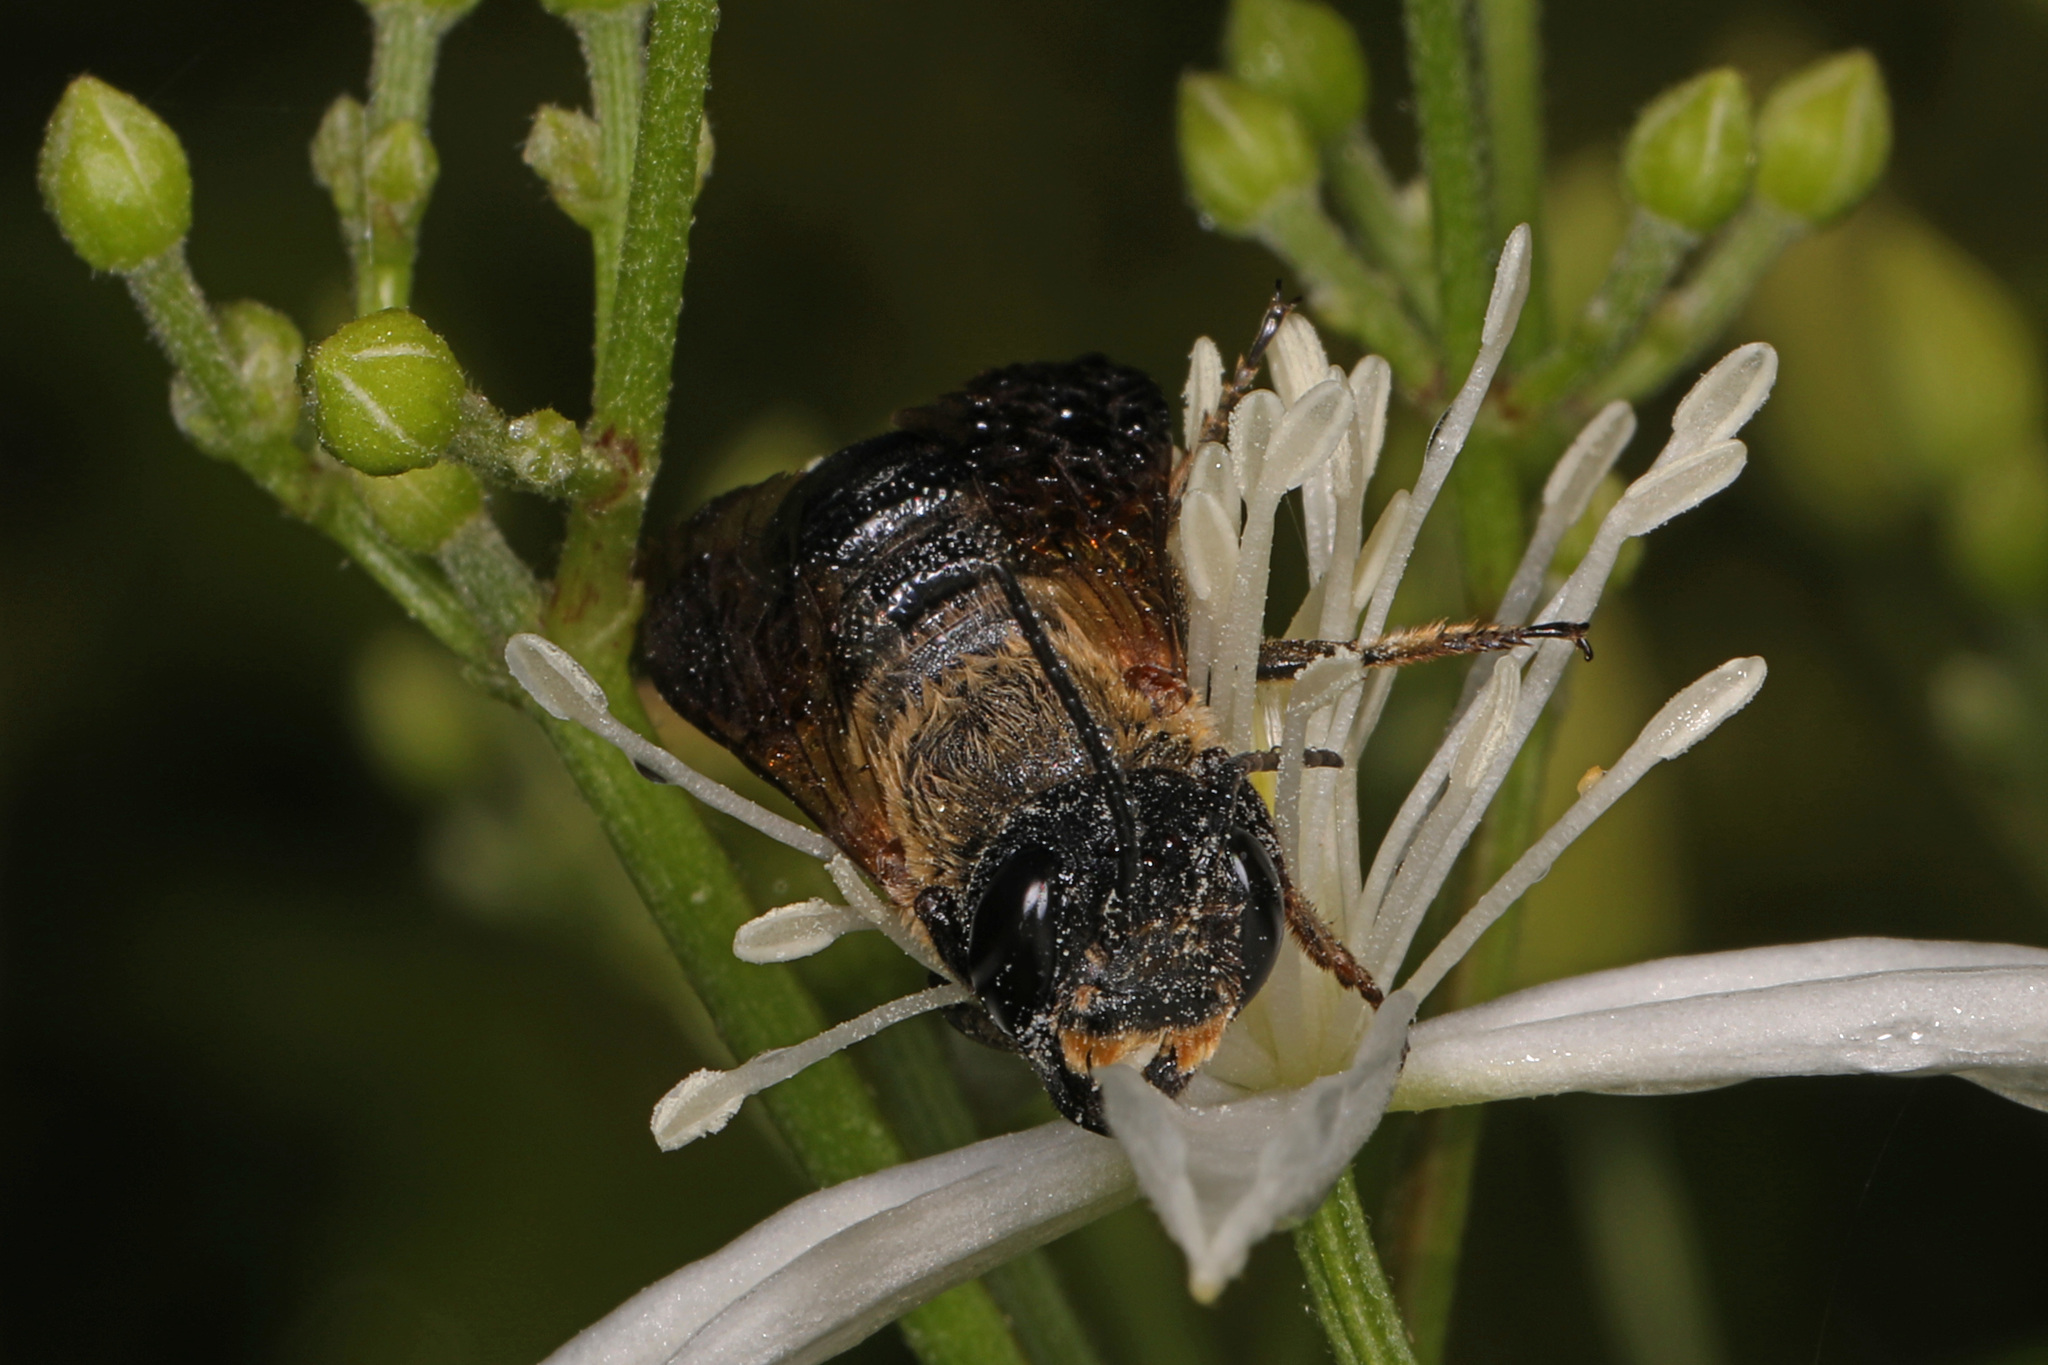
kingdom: Animalia
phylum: Arthropoda
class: Insecta
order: Hymenoptera
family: Megachilidae
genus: Megachile
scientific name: Megachile sculpturalis
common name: Sculptured resin bee
